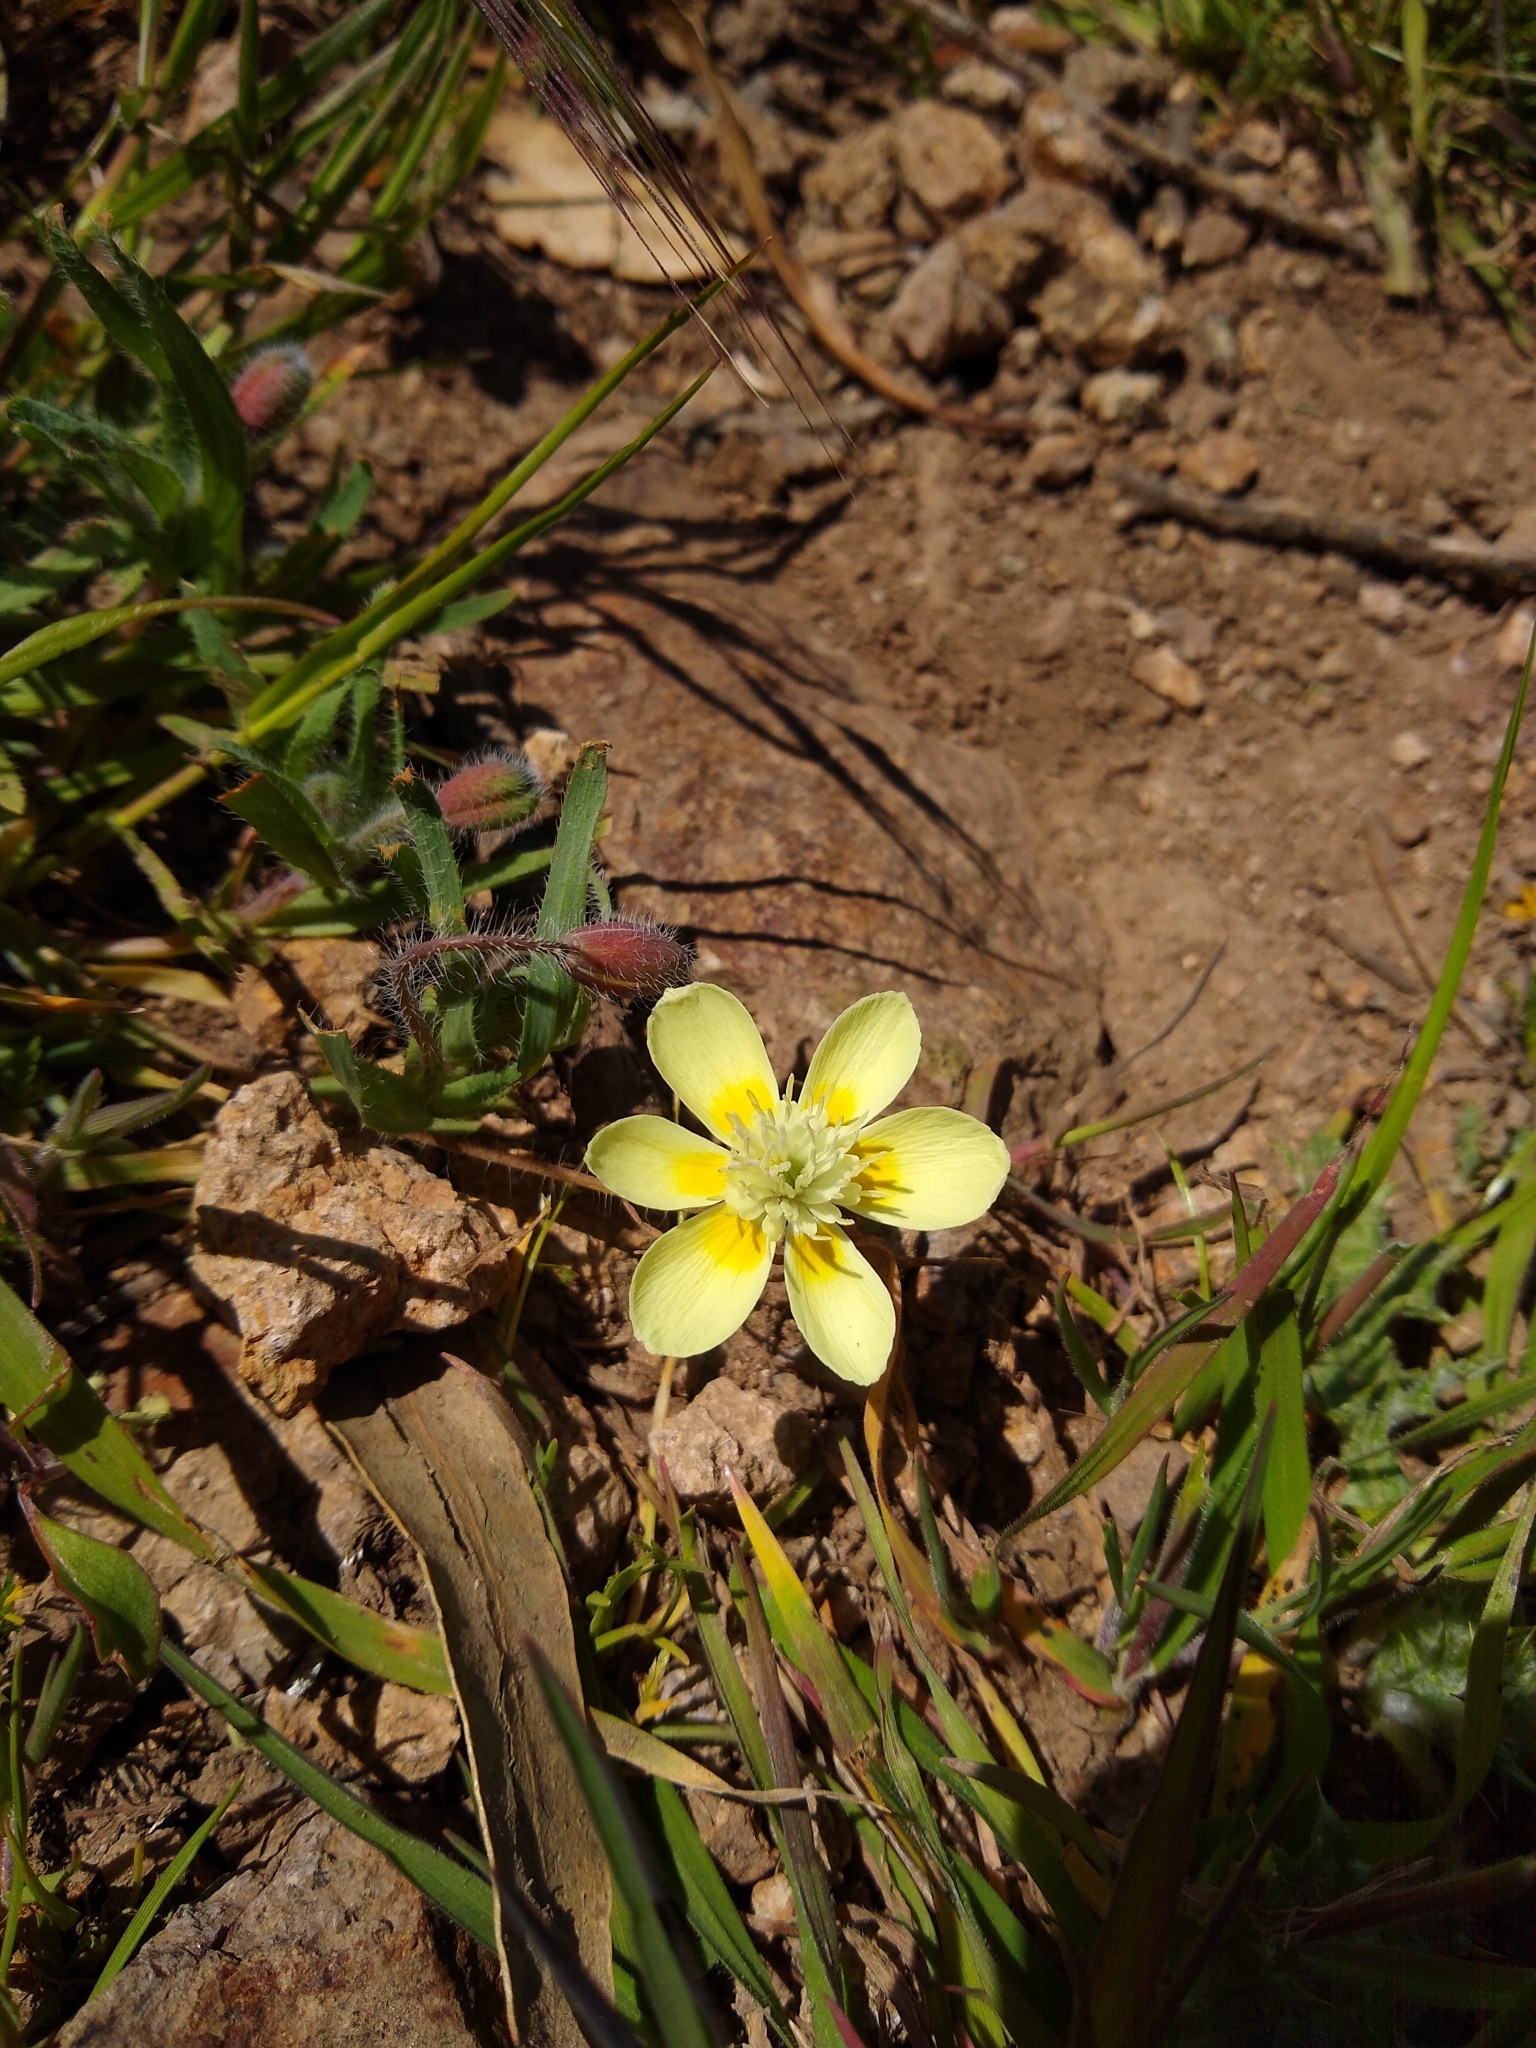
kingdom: Plantae
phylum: Tracheophyta
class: Magnoliopsida
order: Ranunculales
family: Papaveraceae
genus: Platystemon
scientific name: Platystemon californicus
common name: Cream-cups
